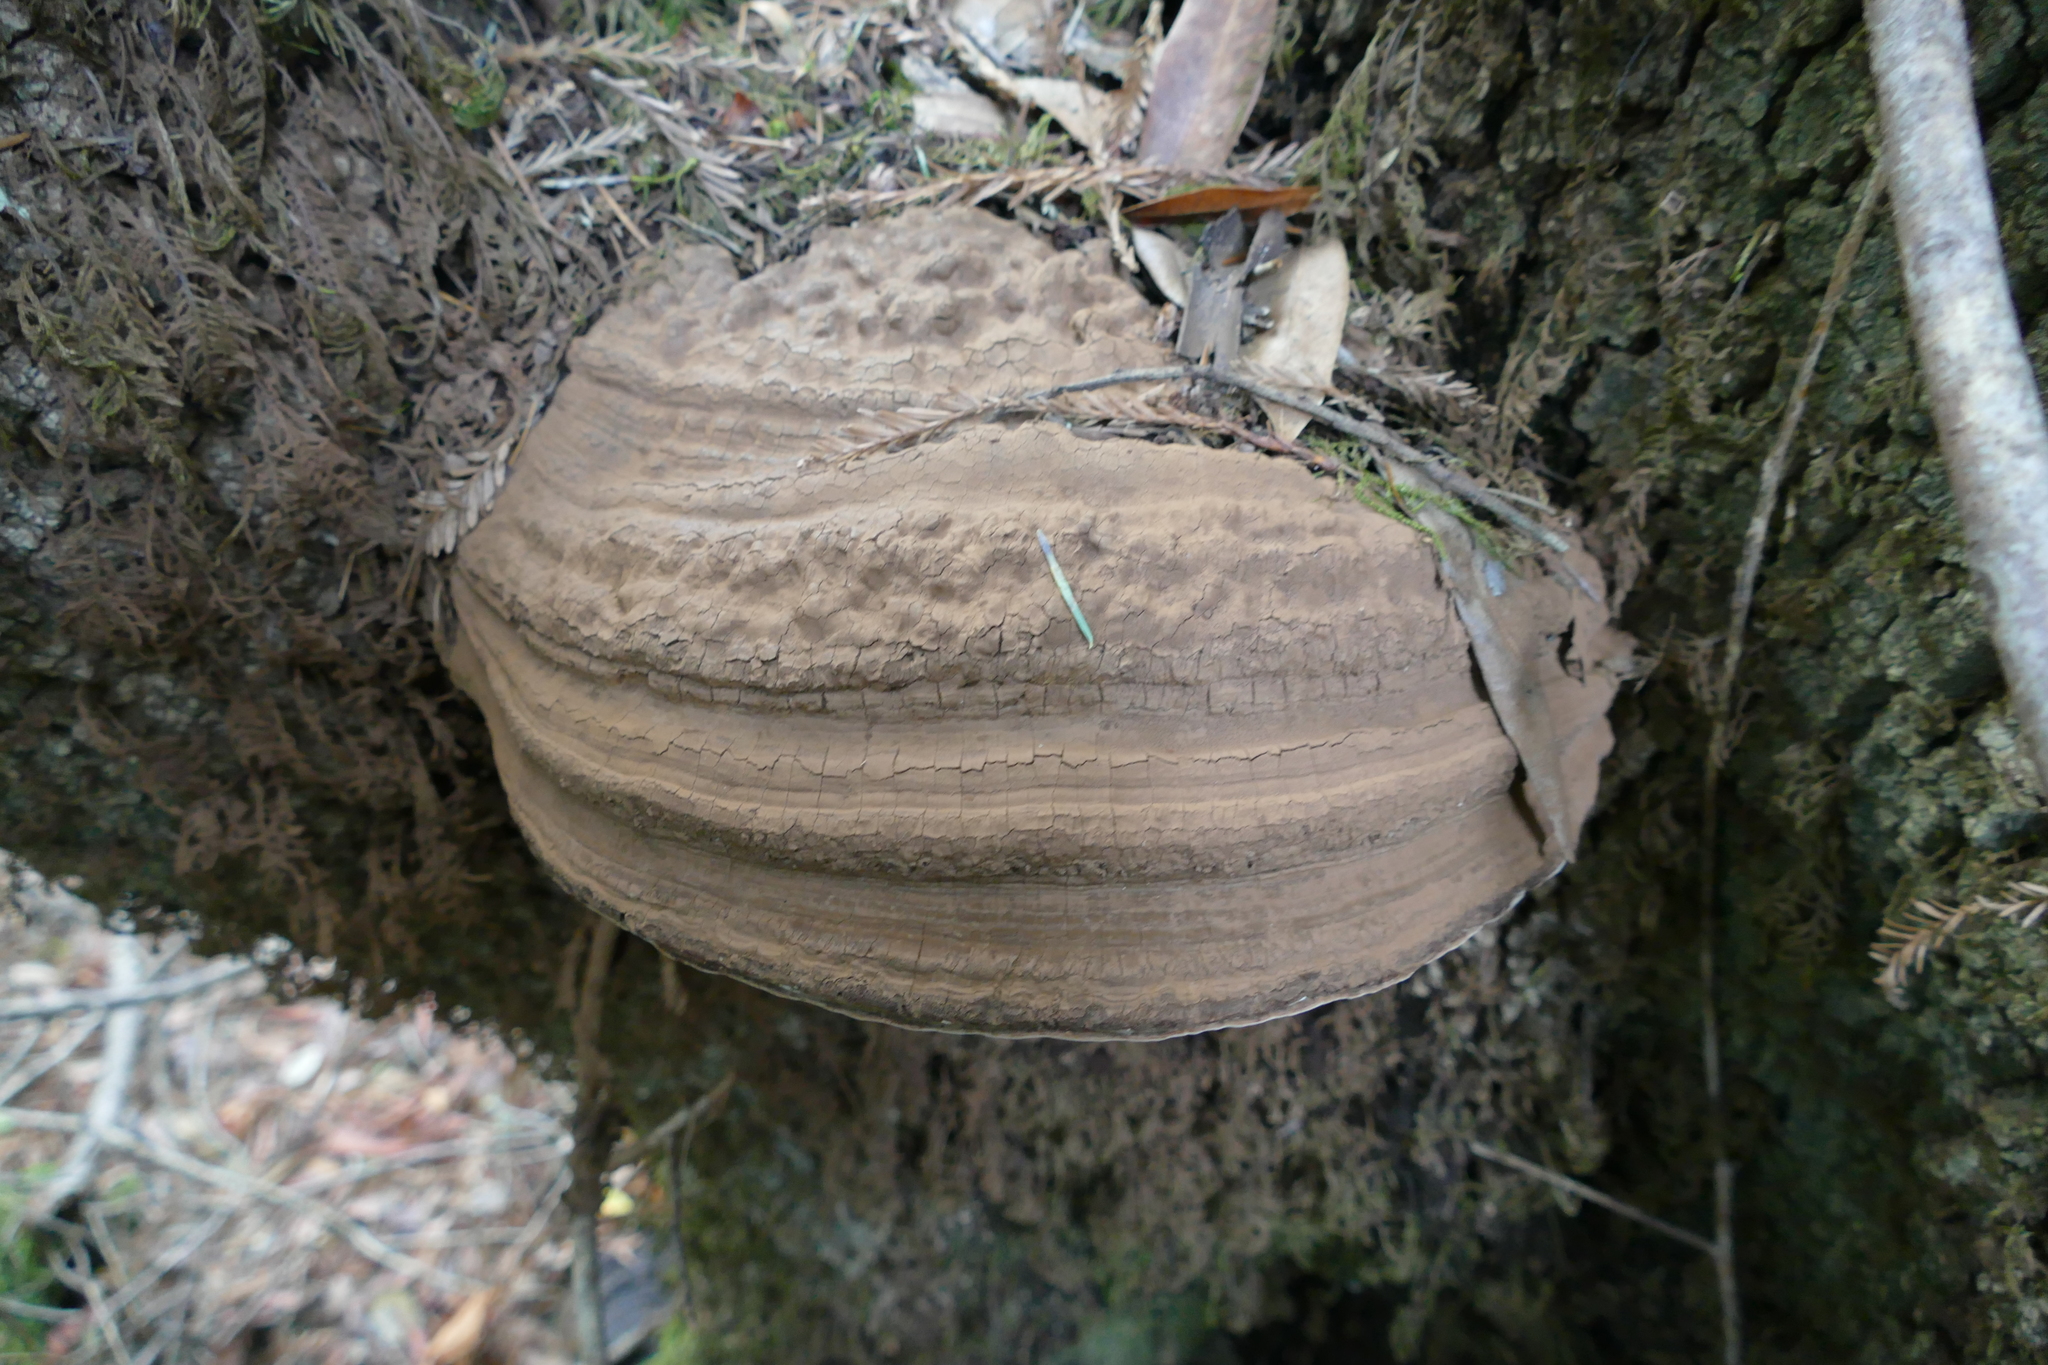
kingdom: Fungi
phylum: Basidiomycota
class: Agaricomycetes
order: Polyporales
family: Polyporaceae
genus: Ganoderma
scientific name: Ganoderma brownii
